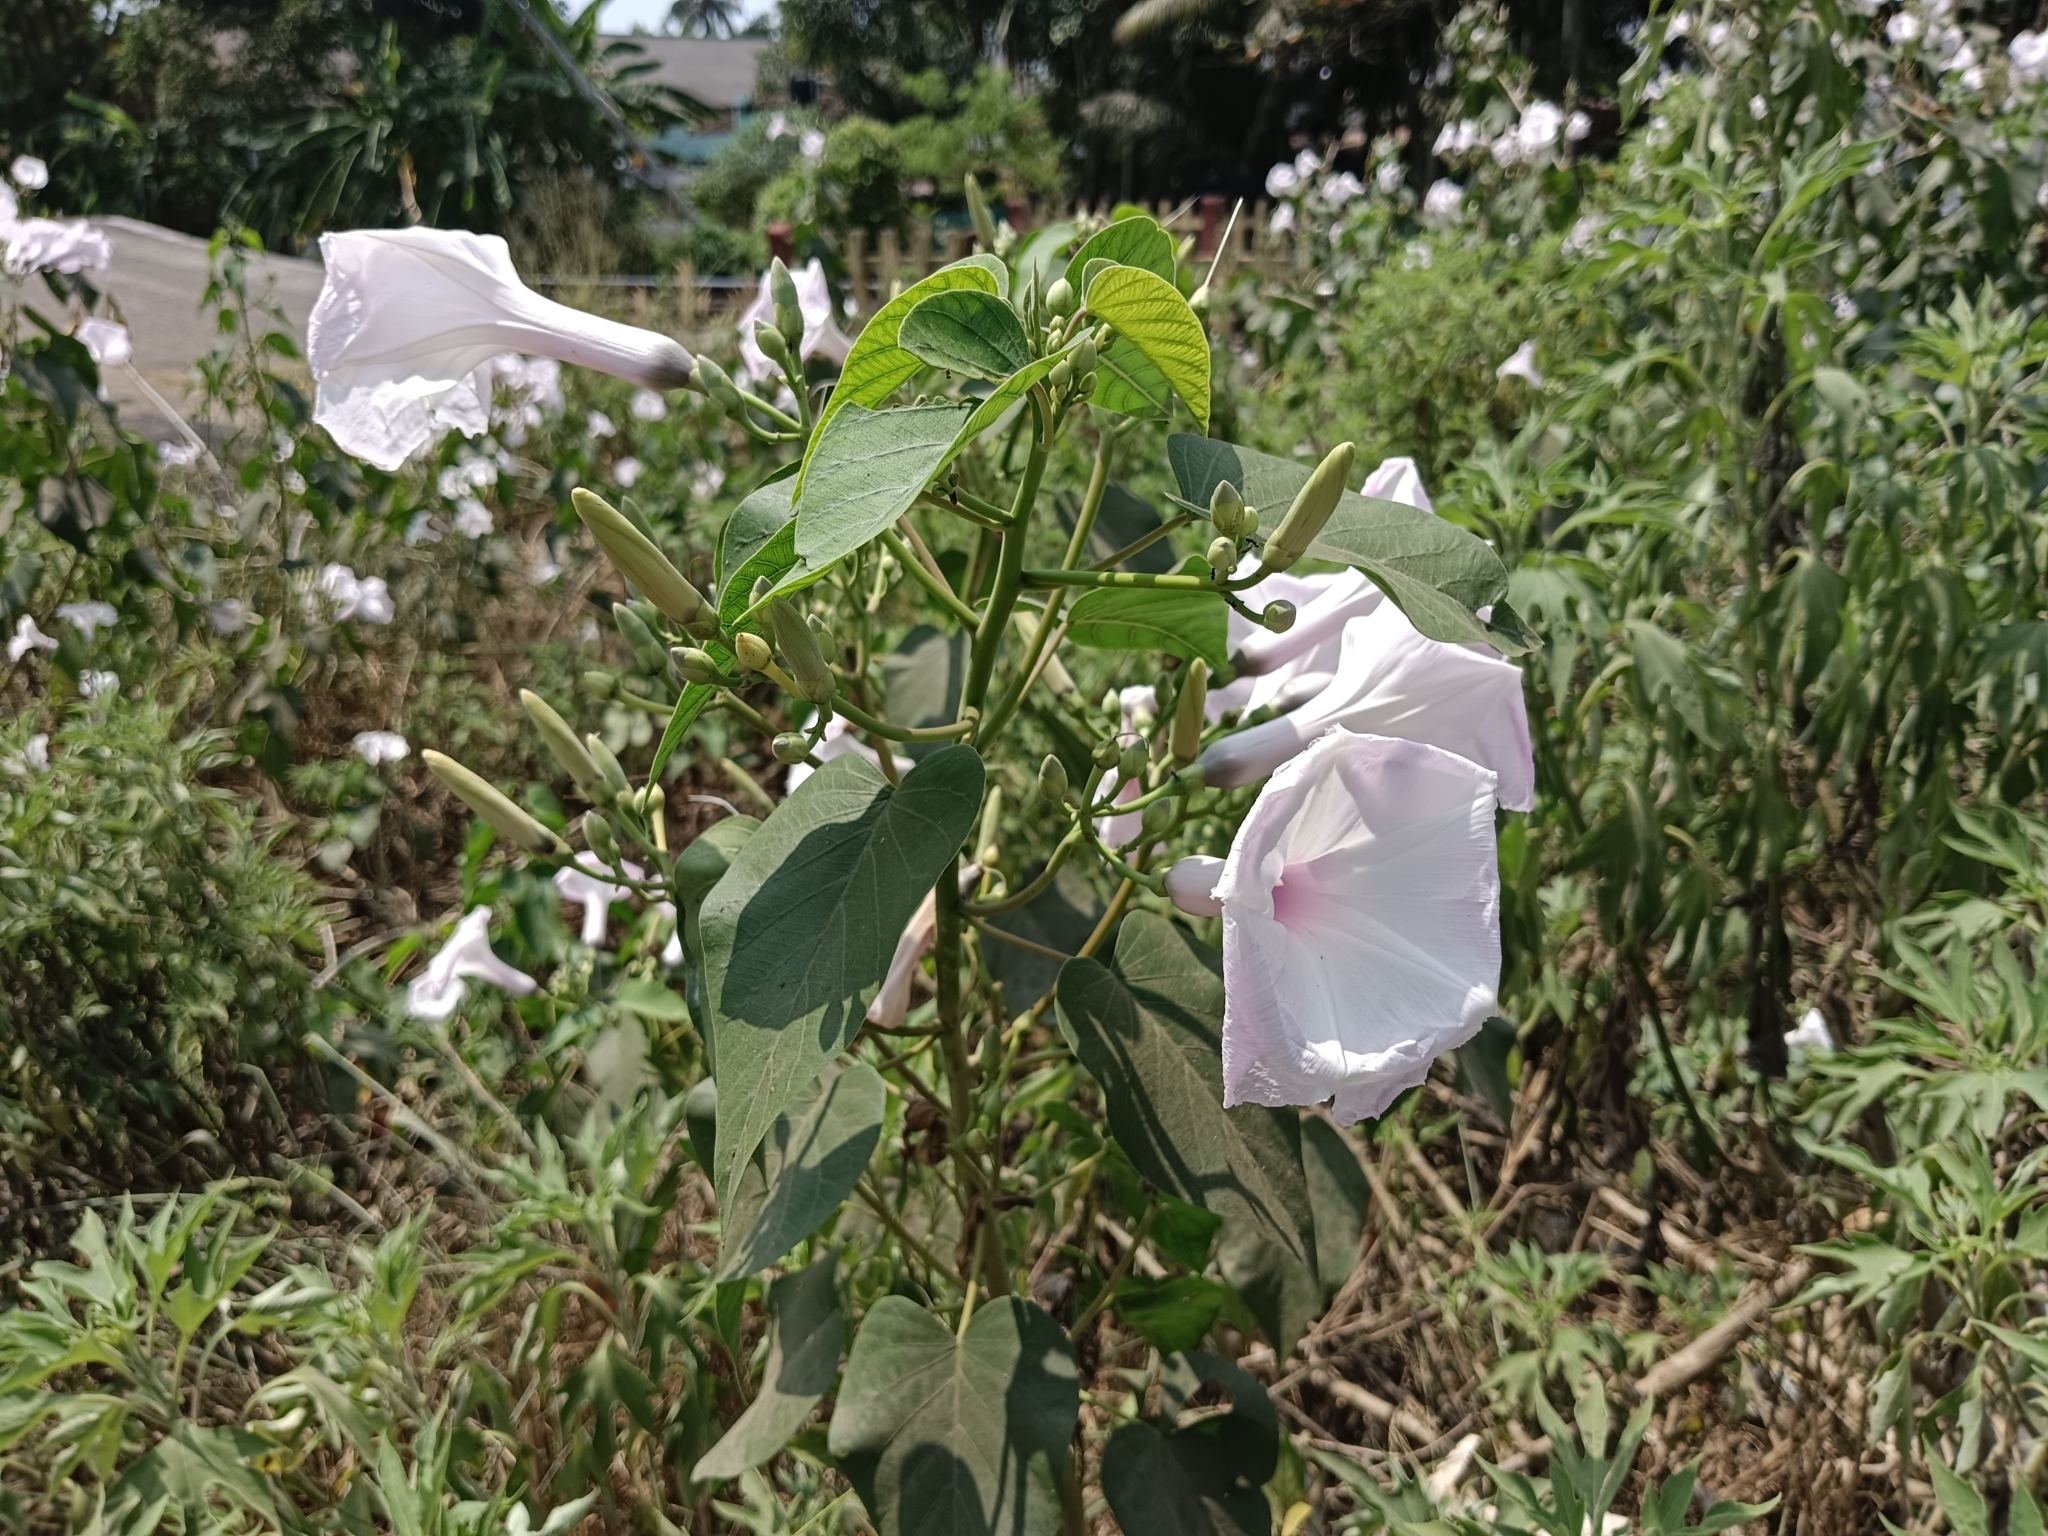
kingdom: Plantae
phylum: Tracheophyta
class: Magnoliopsida
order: Solanales
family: Convolvulaceae
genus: Ipomoea
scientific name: Ipomoea carnea
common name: Morning-glory
